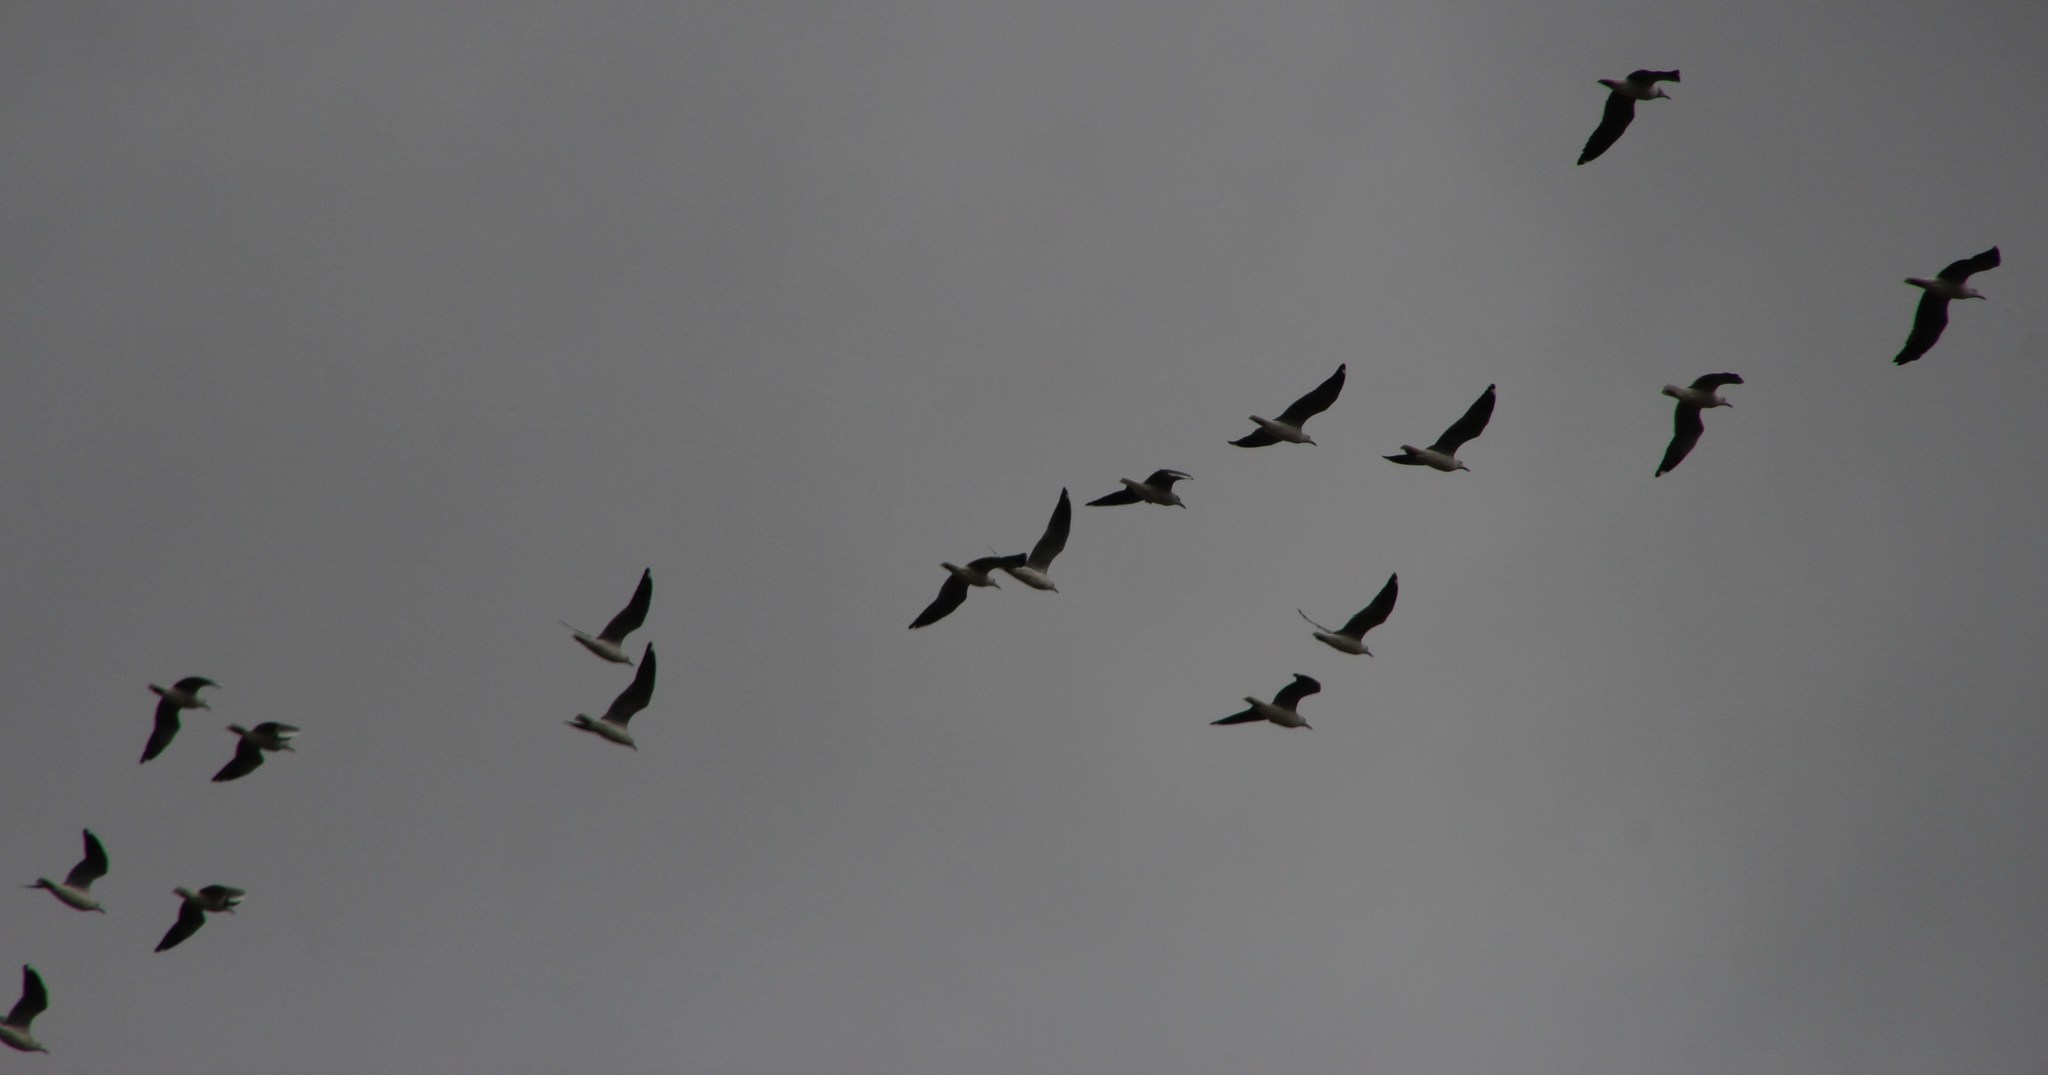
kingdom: Animalia
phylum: Chordata
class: Aves
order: Charadriiformes
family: Laridae
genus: Chroicocephalus
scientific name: Chroicocephalus hartlaubii
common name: Hartlaub's gull
